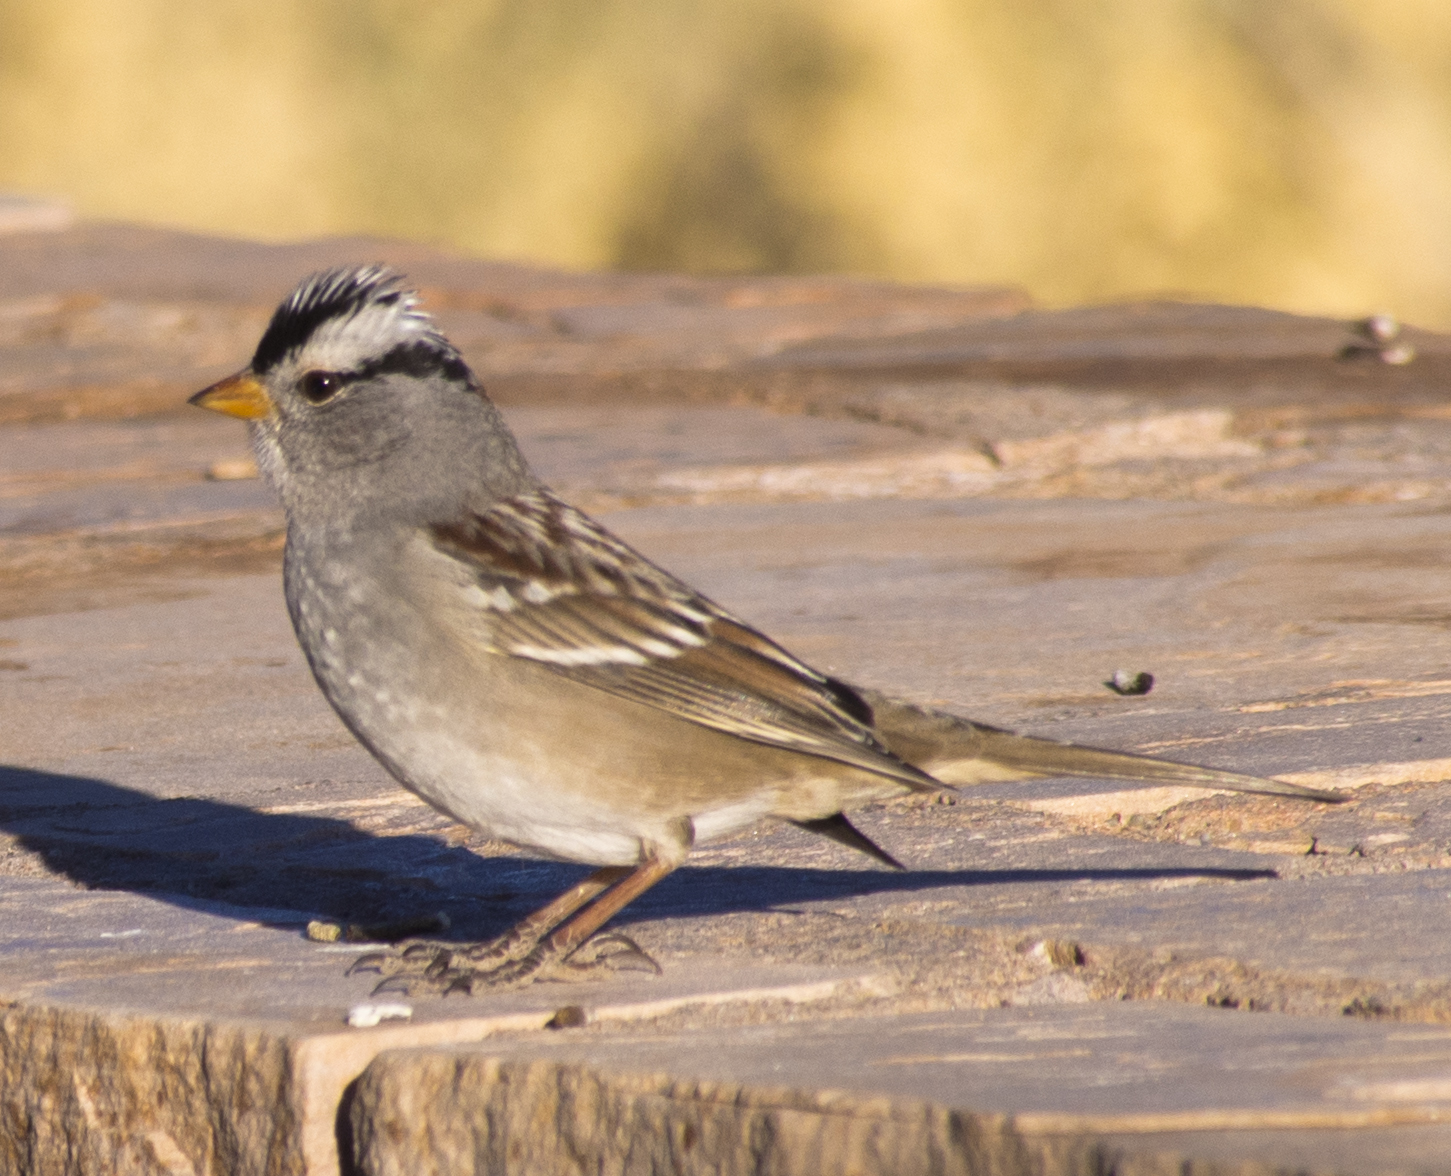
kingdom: Animalia
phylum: Chordata
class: Aves
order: Passeriformes
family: Passerellidae
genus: Zonotrichia
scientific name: Zonotrichia leucophrys
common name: White-crowned sparrow
